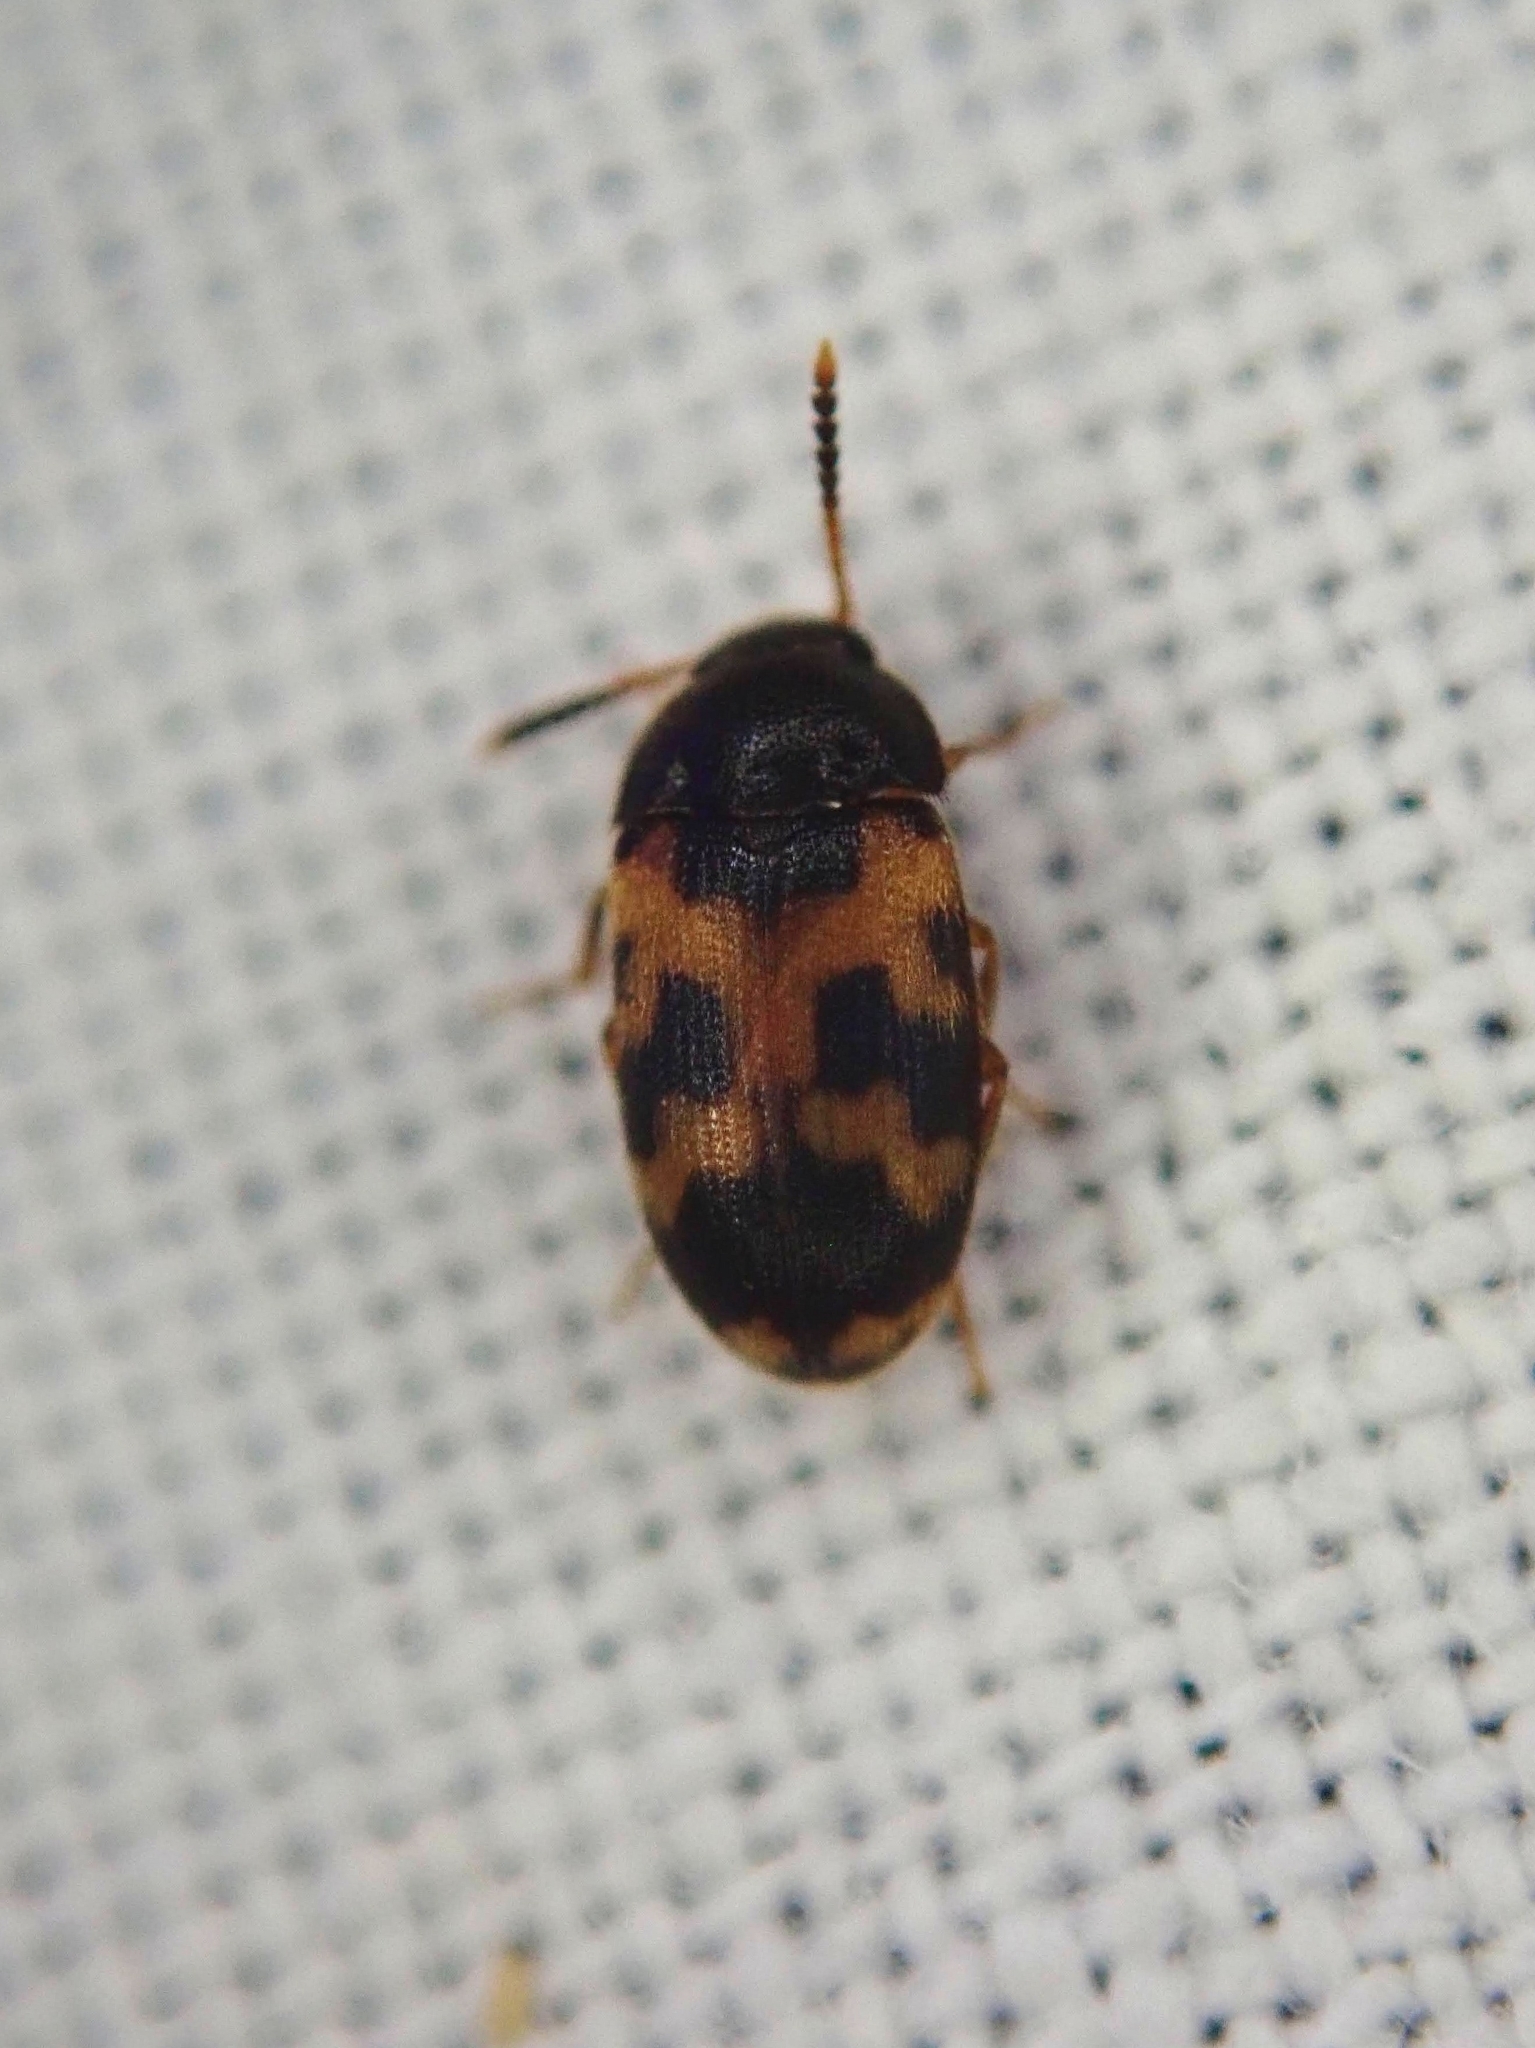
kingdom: Animalia
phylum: Arthropoda
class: Insecta
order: Coleoptera
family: Mycetophagidae
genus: Mycetophagus
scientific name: Mycetophagus flexuosus
